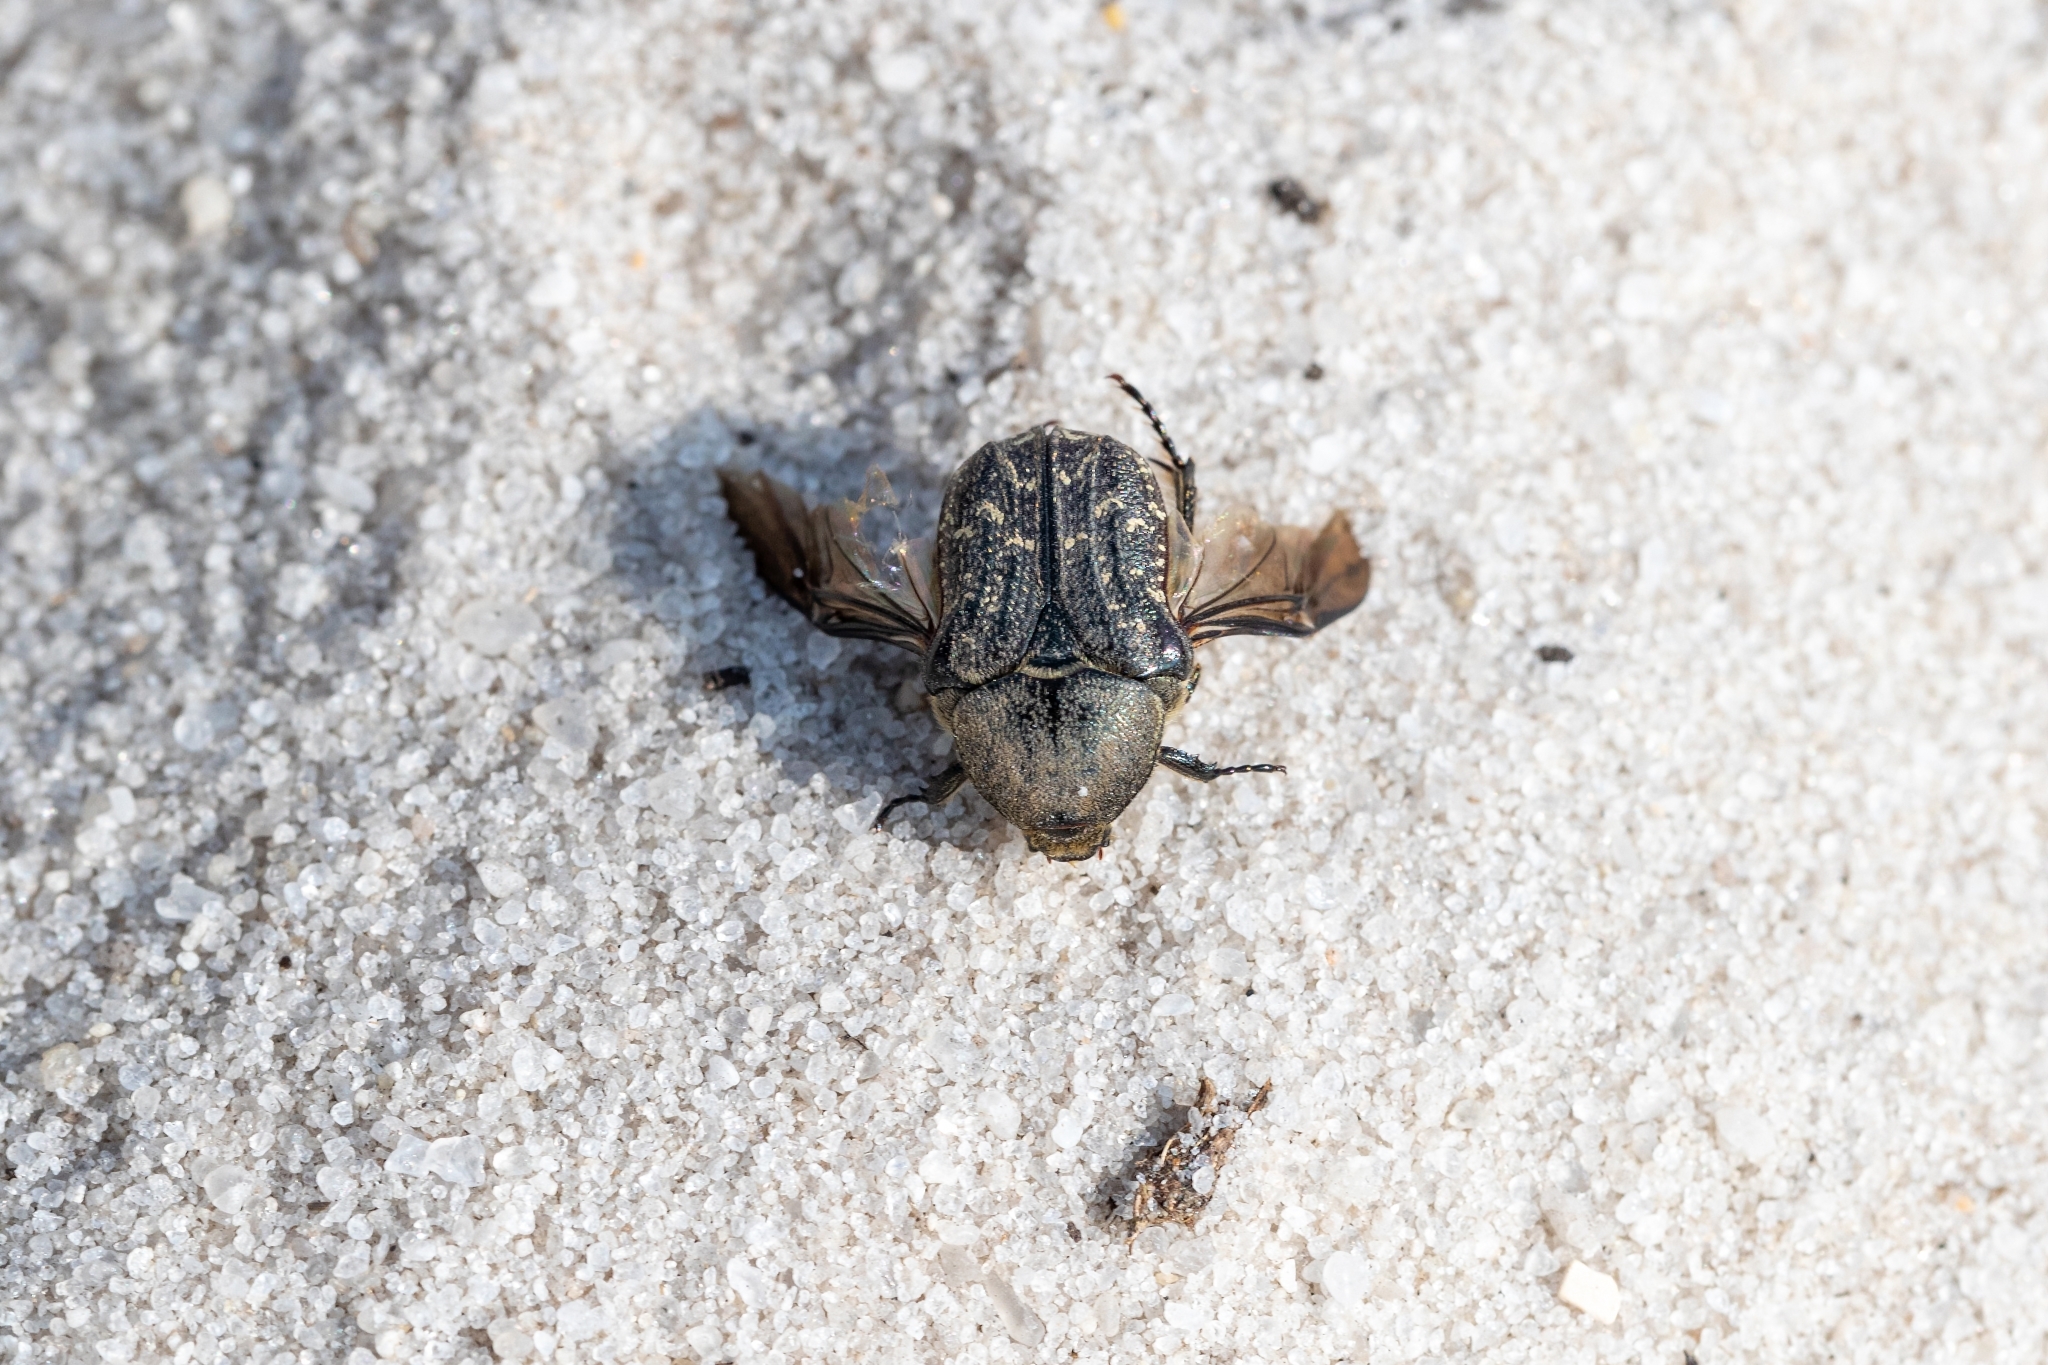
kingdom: Animalia
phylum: Arthropoda
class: Insecta
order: Coleoptera
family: Scarabaeidae
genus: Euphoria
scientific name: Euphoria sepulcralis
